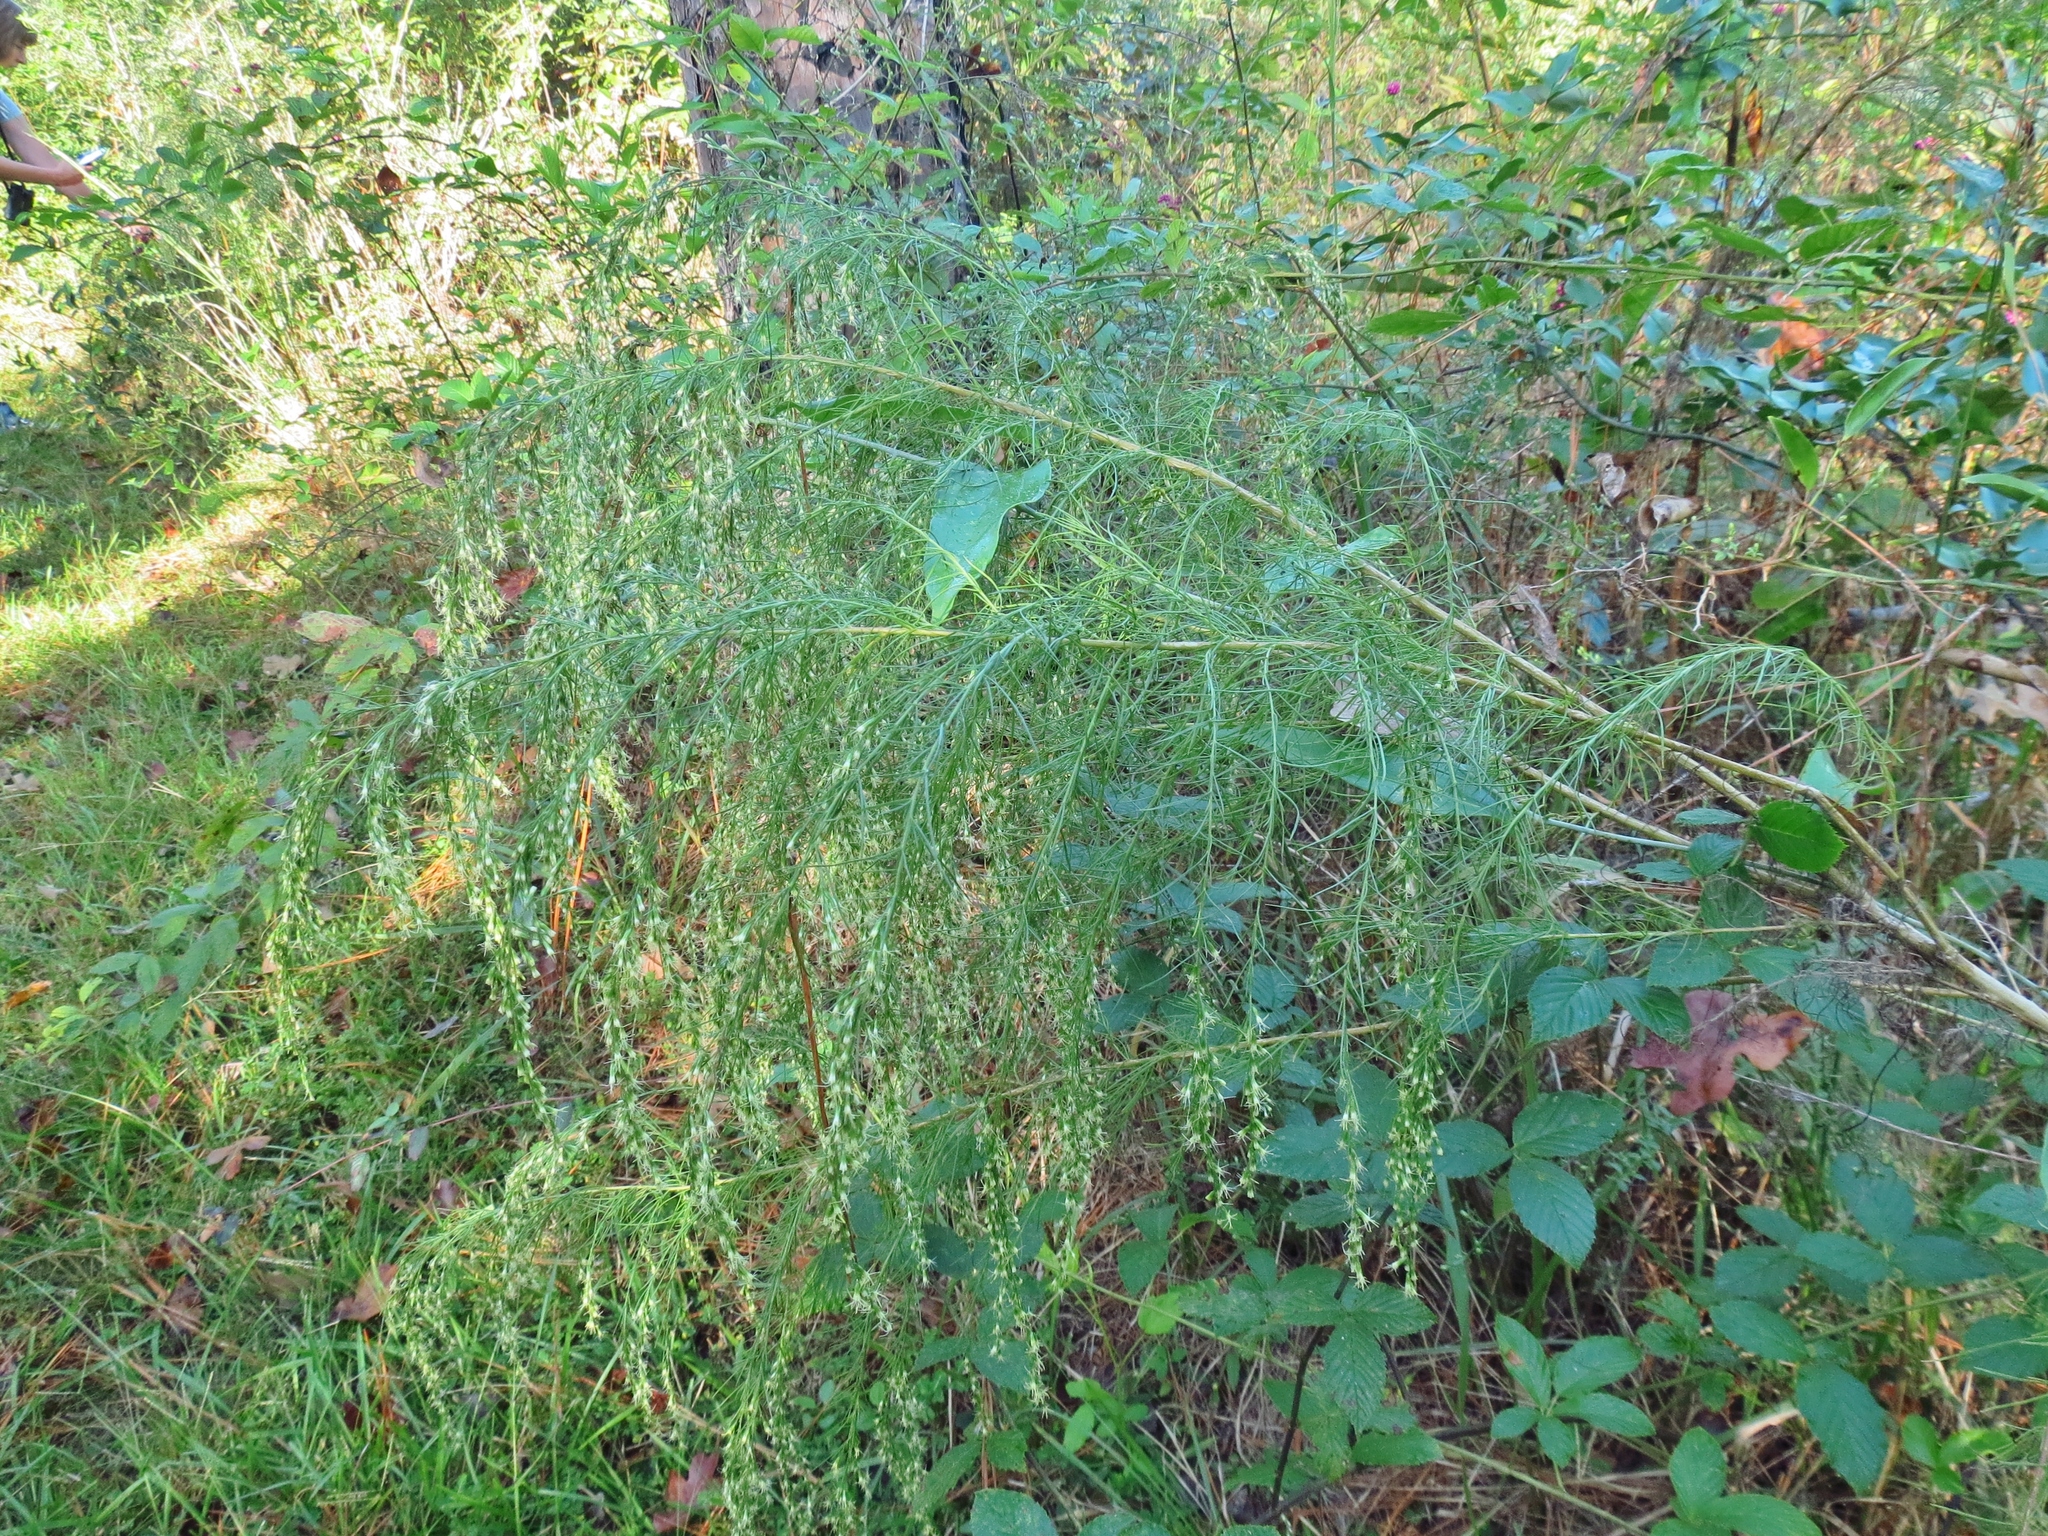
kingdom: Plantae
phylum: Tracheophyta
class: Magnoliopsida
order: Asterales
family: Asteraceae
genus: Eupatorium
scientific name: Eupatorium capillifolium
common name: Dog-fennel
